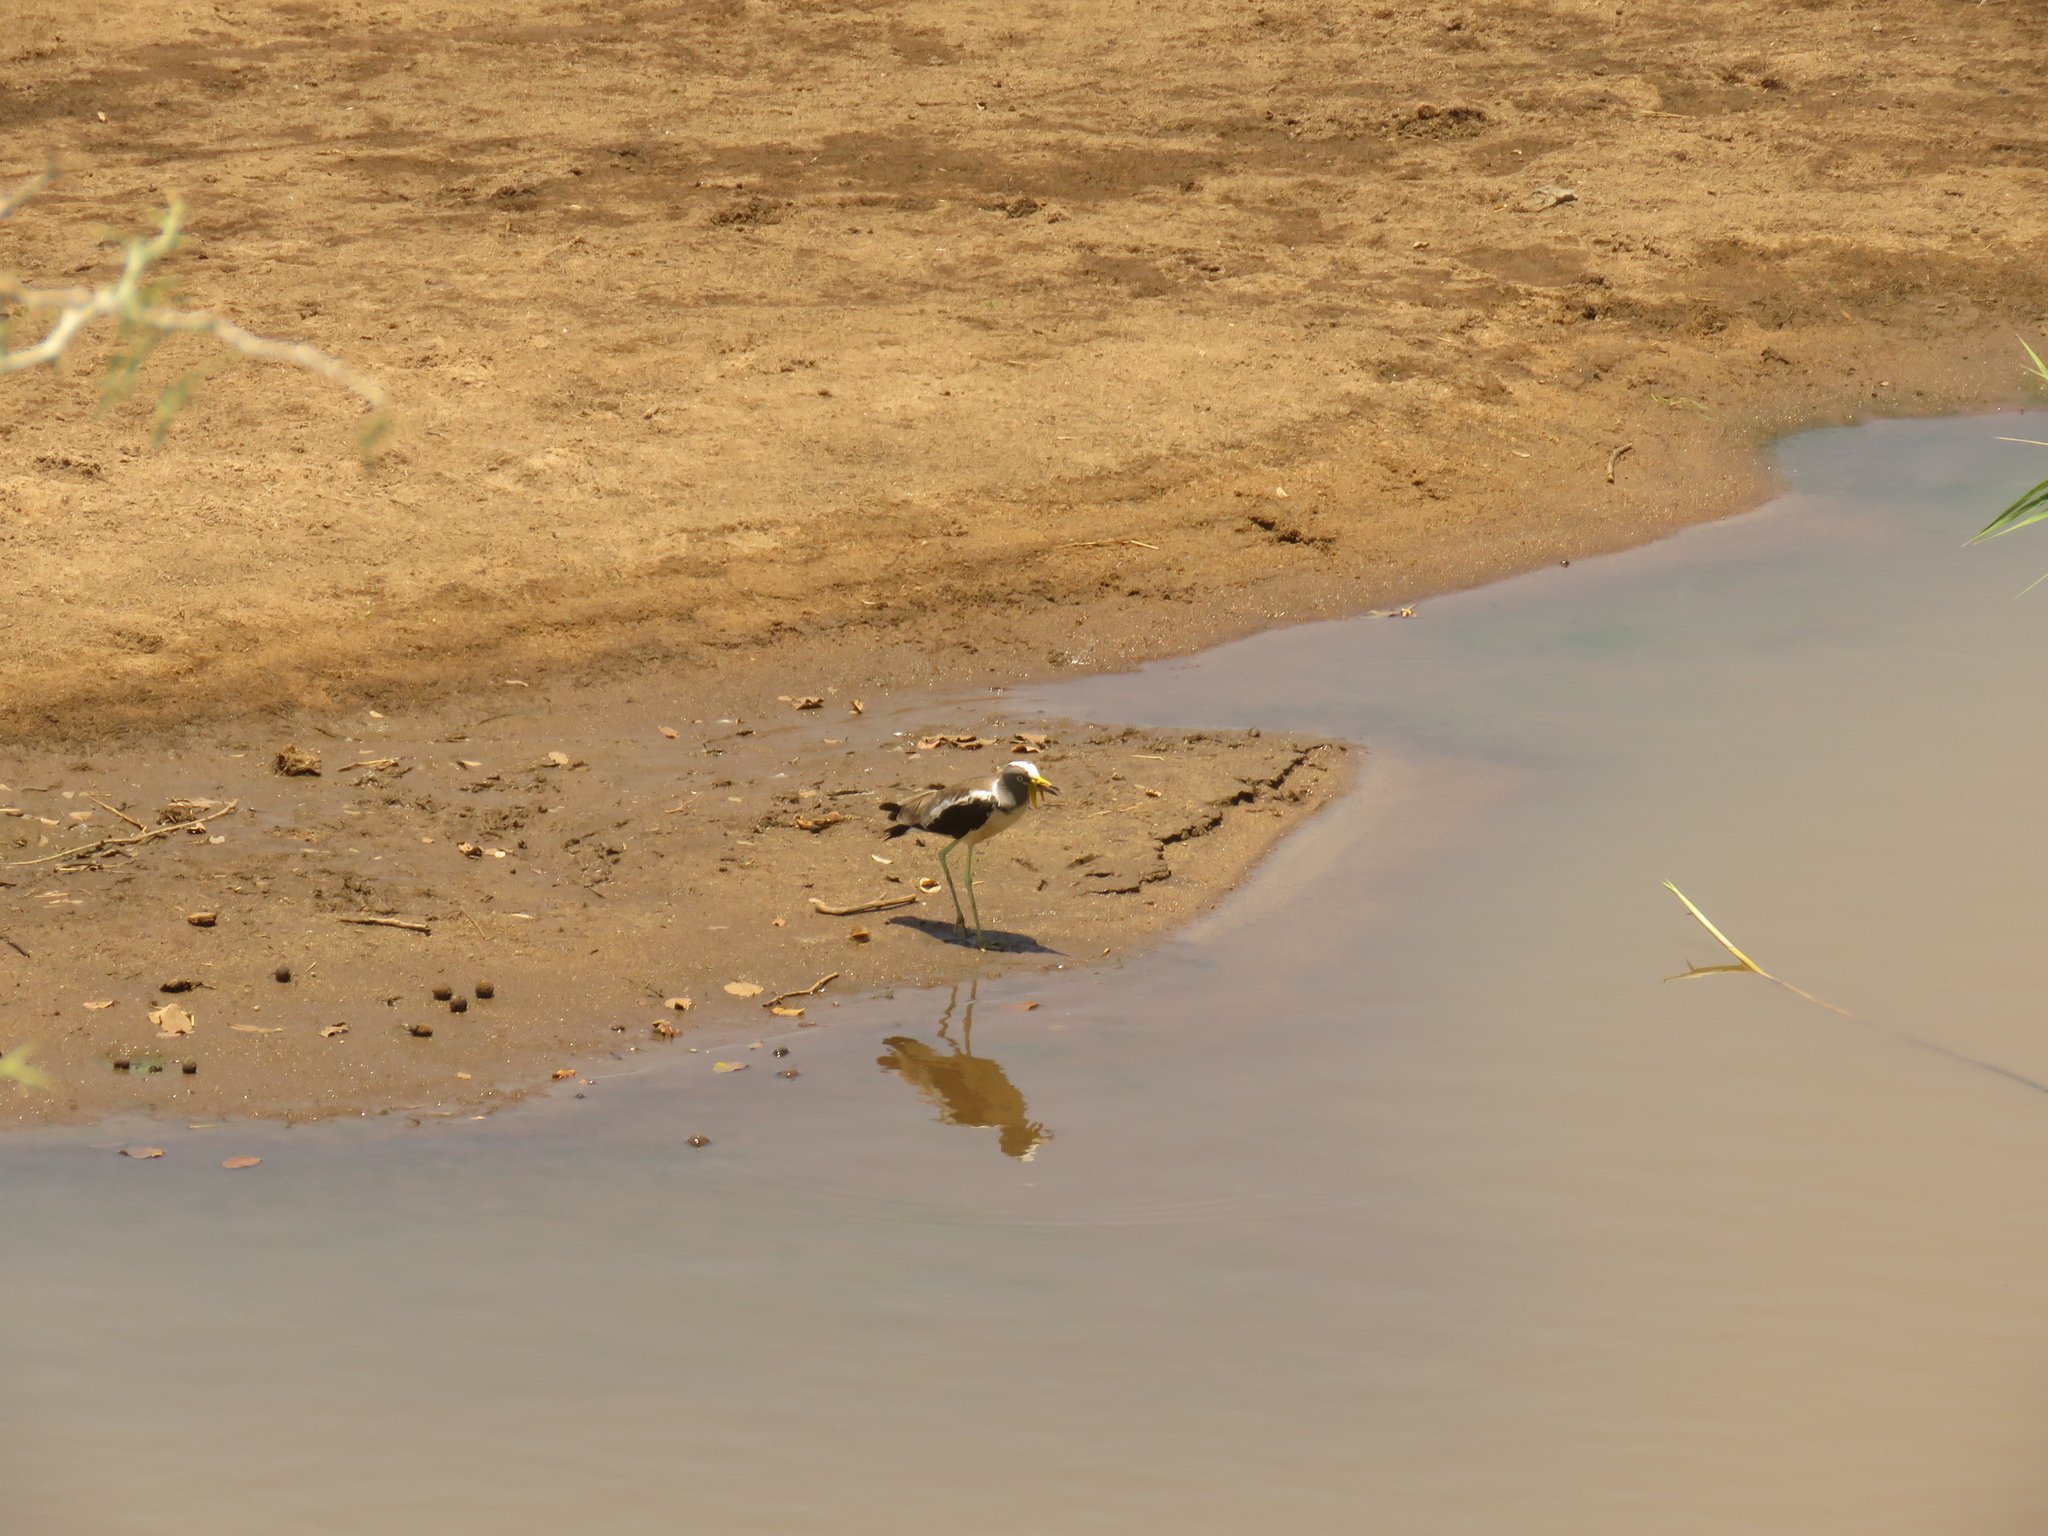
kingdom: Animalia
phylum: Chordata
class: Aves
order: Charadriiformes
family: Charadriidae
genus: Vanellus
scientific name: Vanellus albiceps
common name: White-crowned lapwing
